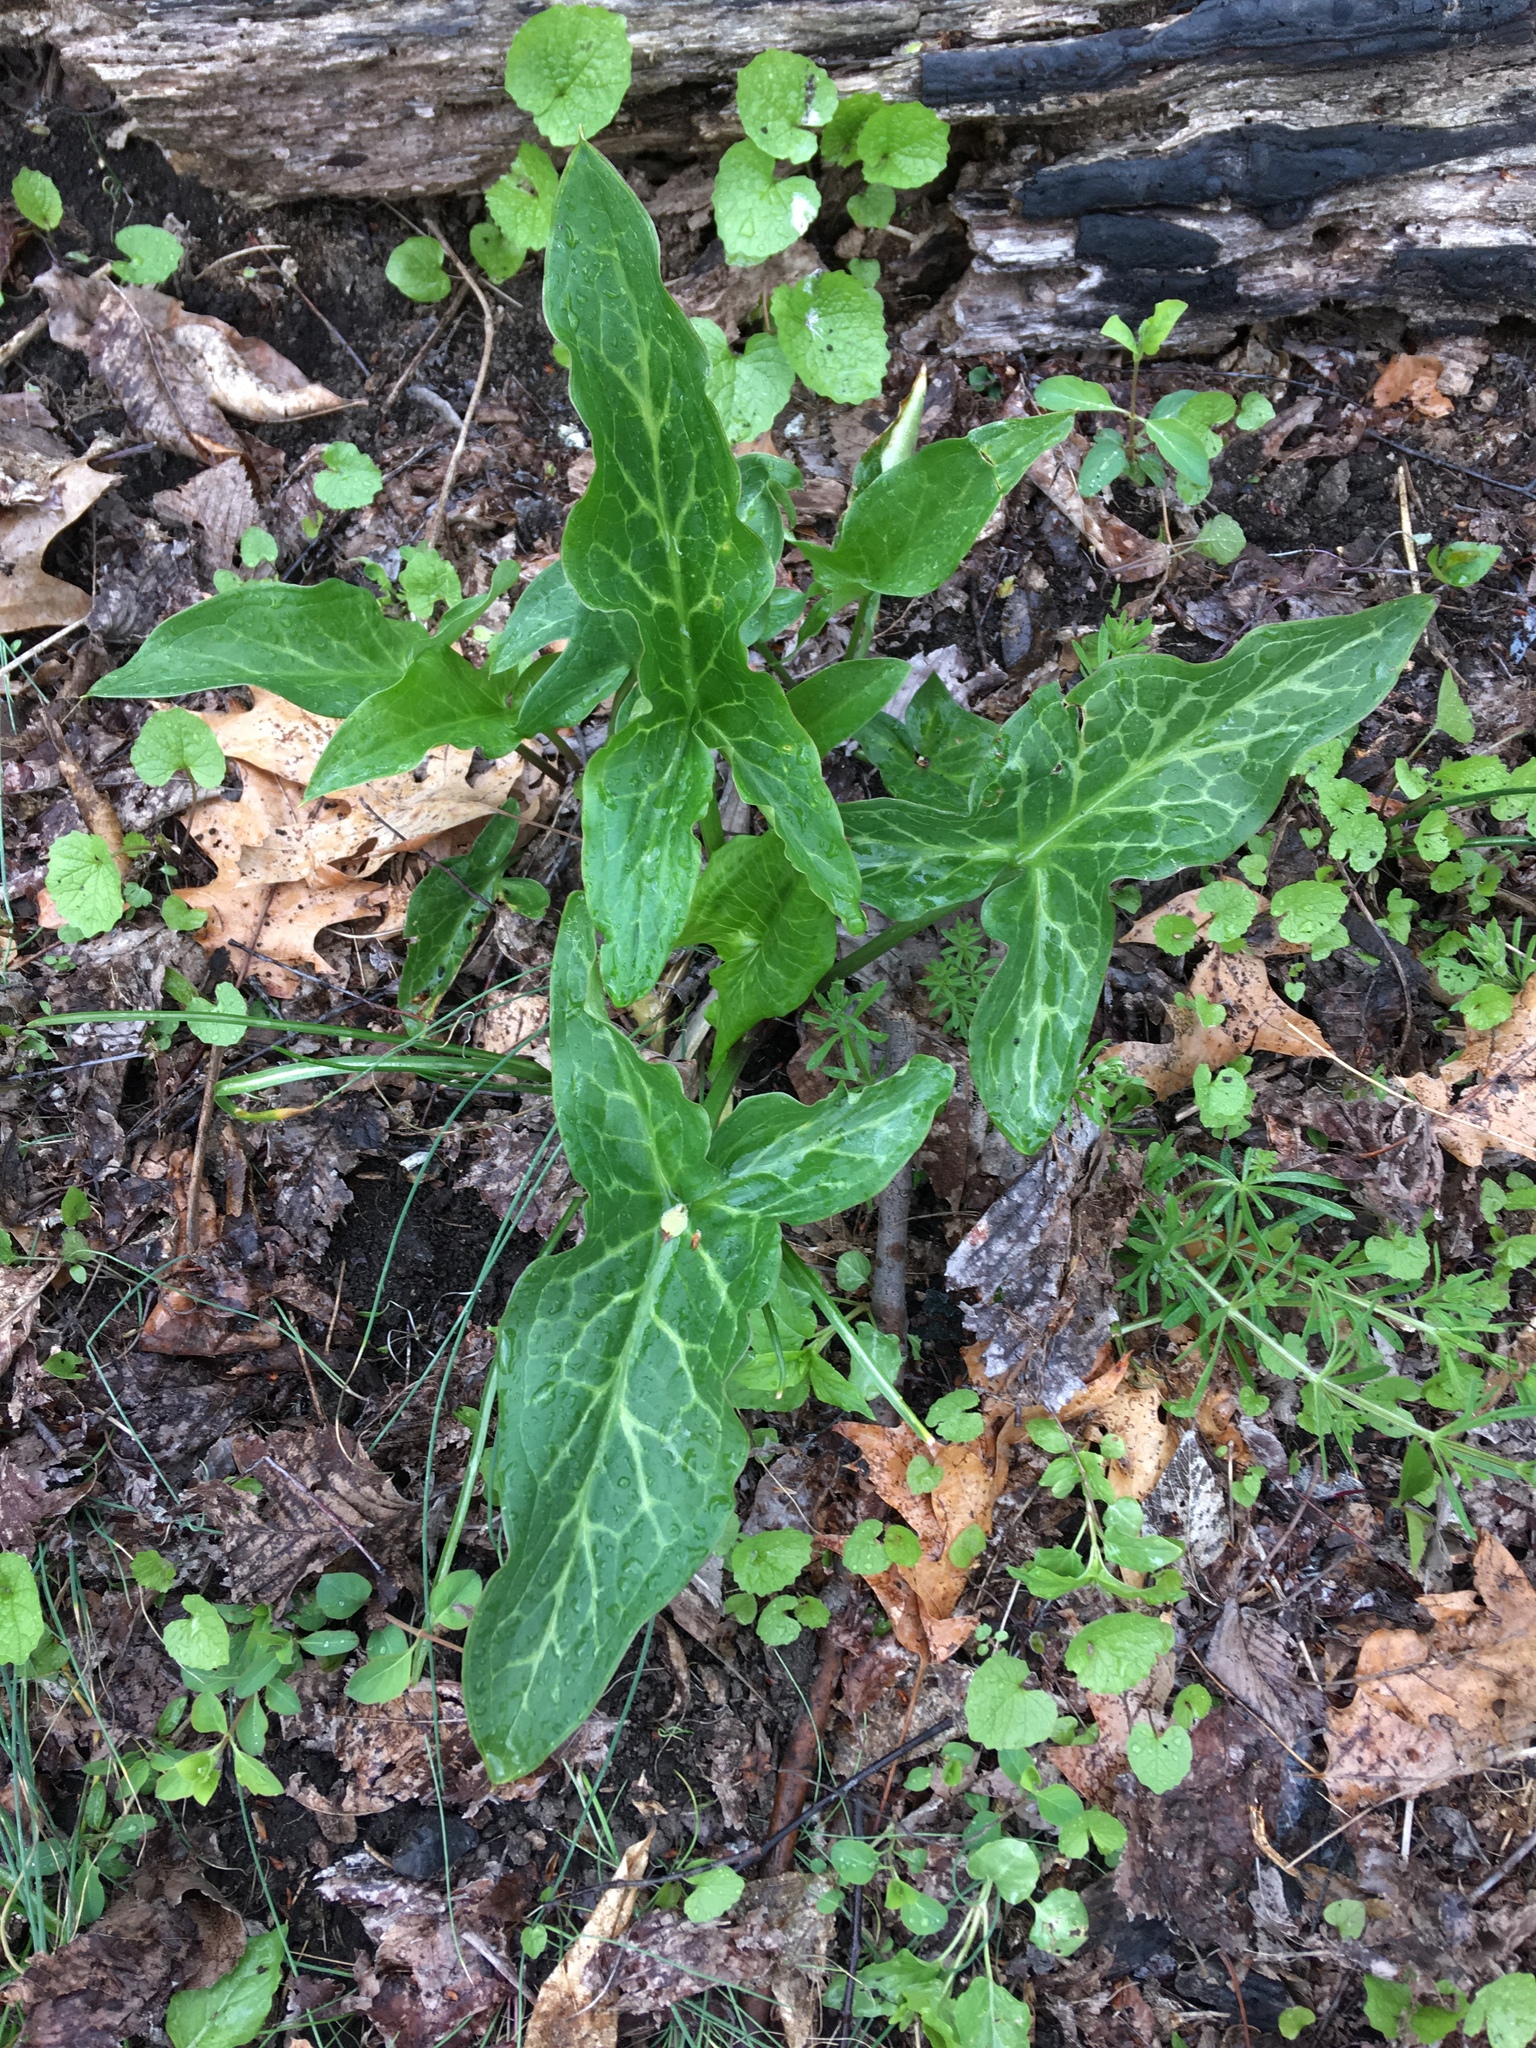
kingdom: Plantae
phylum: Tracheophyta
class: Liliopsida
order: Alismatales
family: Araceae
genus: Arum
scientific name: Arum italicum
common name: Italian lords-and-ladies
